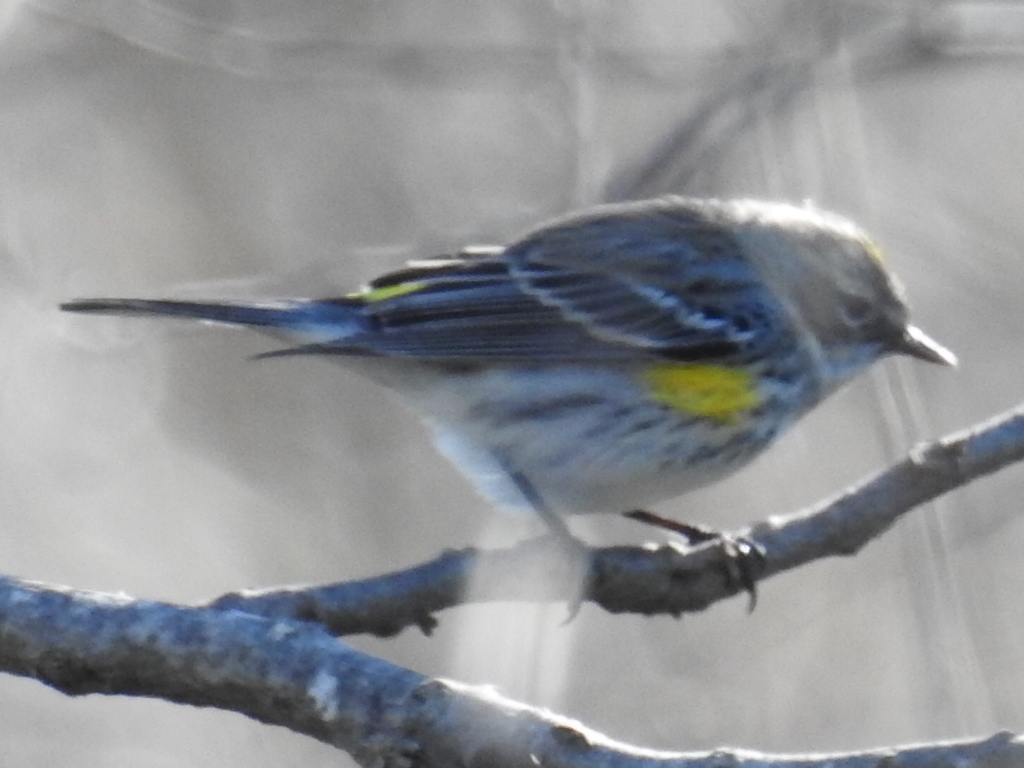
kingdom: Animalia
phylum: Chordata
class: Aves
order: Passeriformes
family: Parulidae
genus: Setophaga
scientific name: Setophaga coronata
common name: Myrtle warbler
